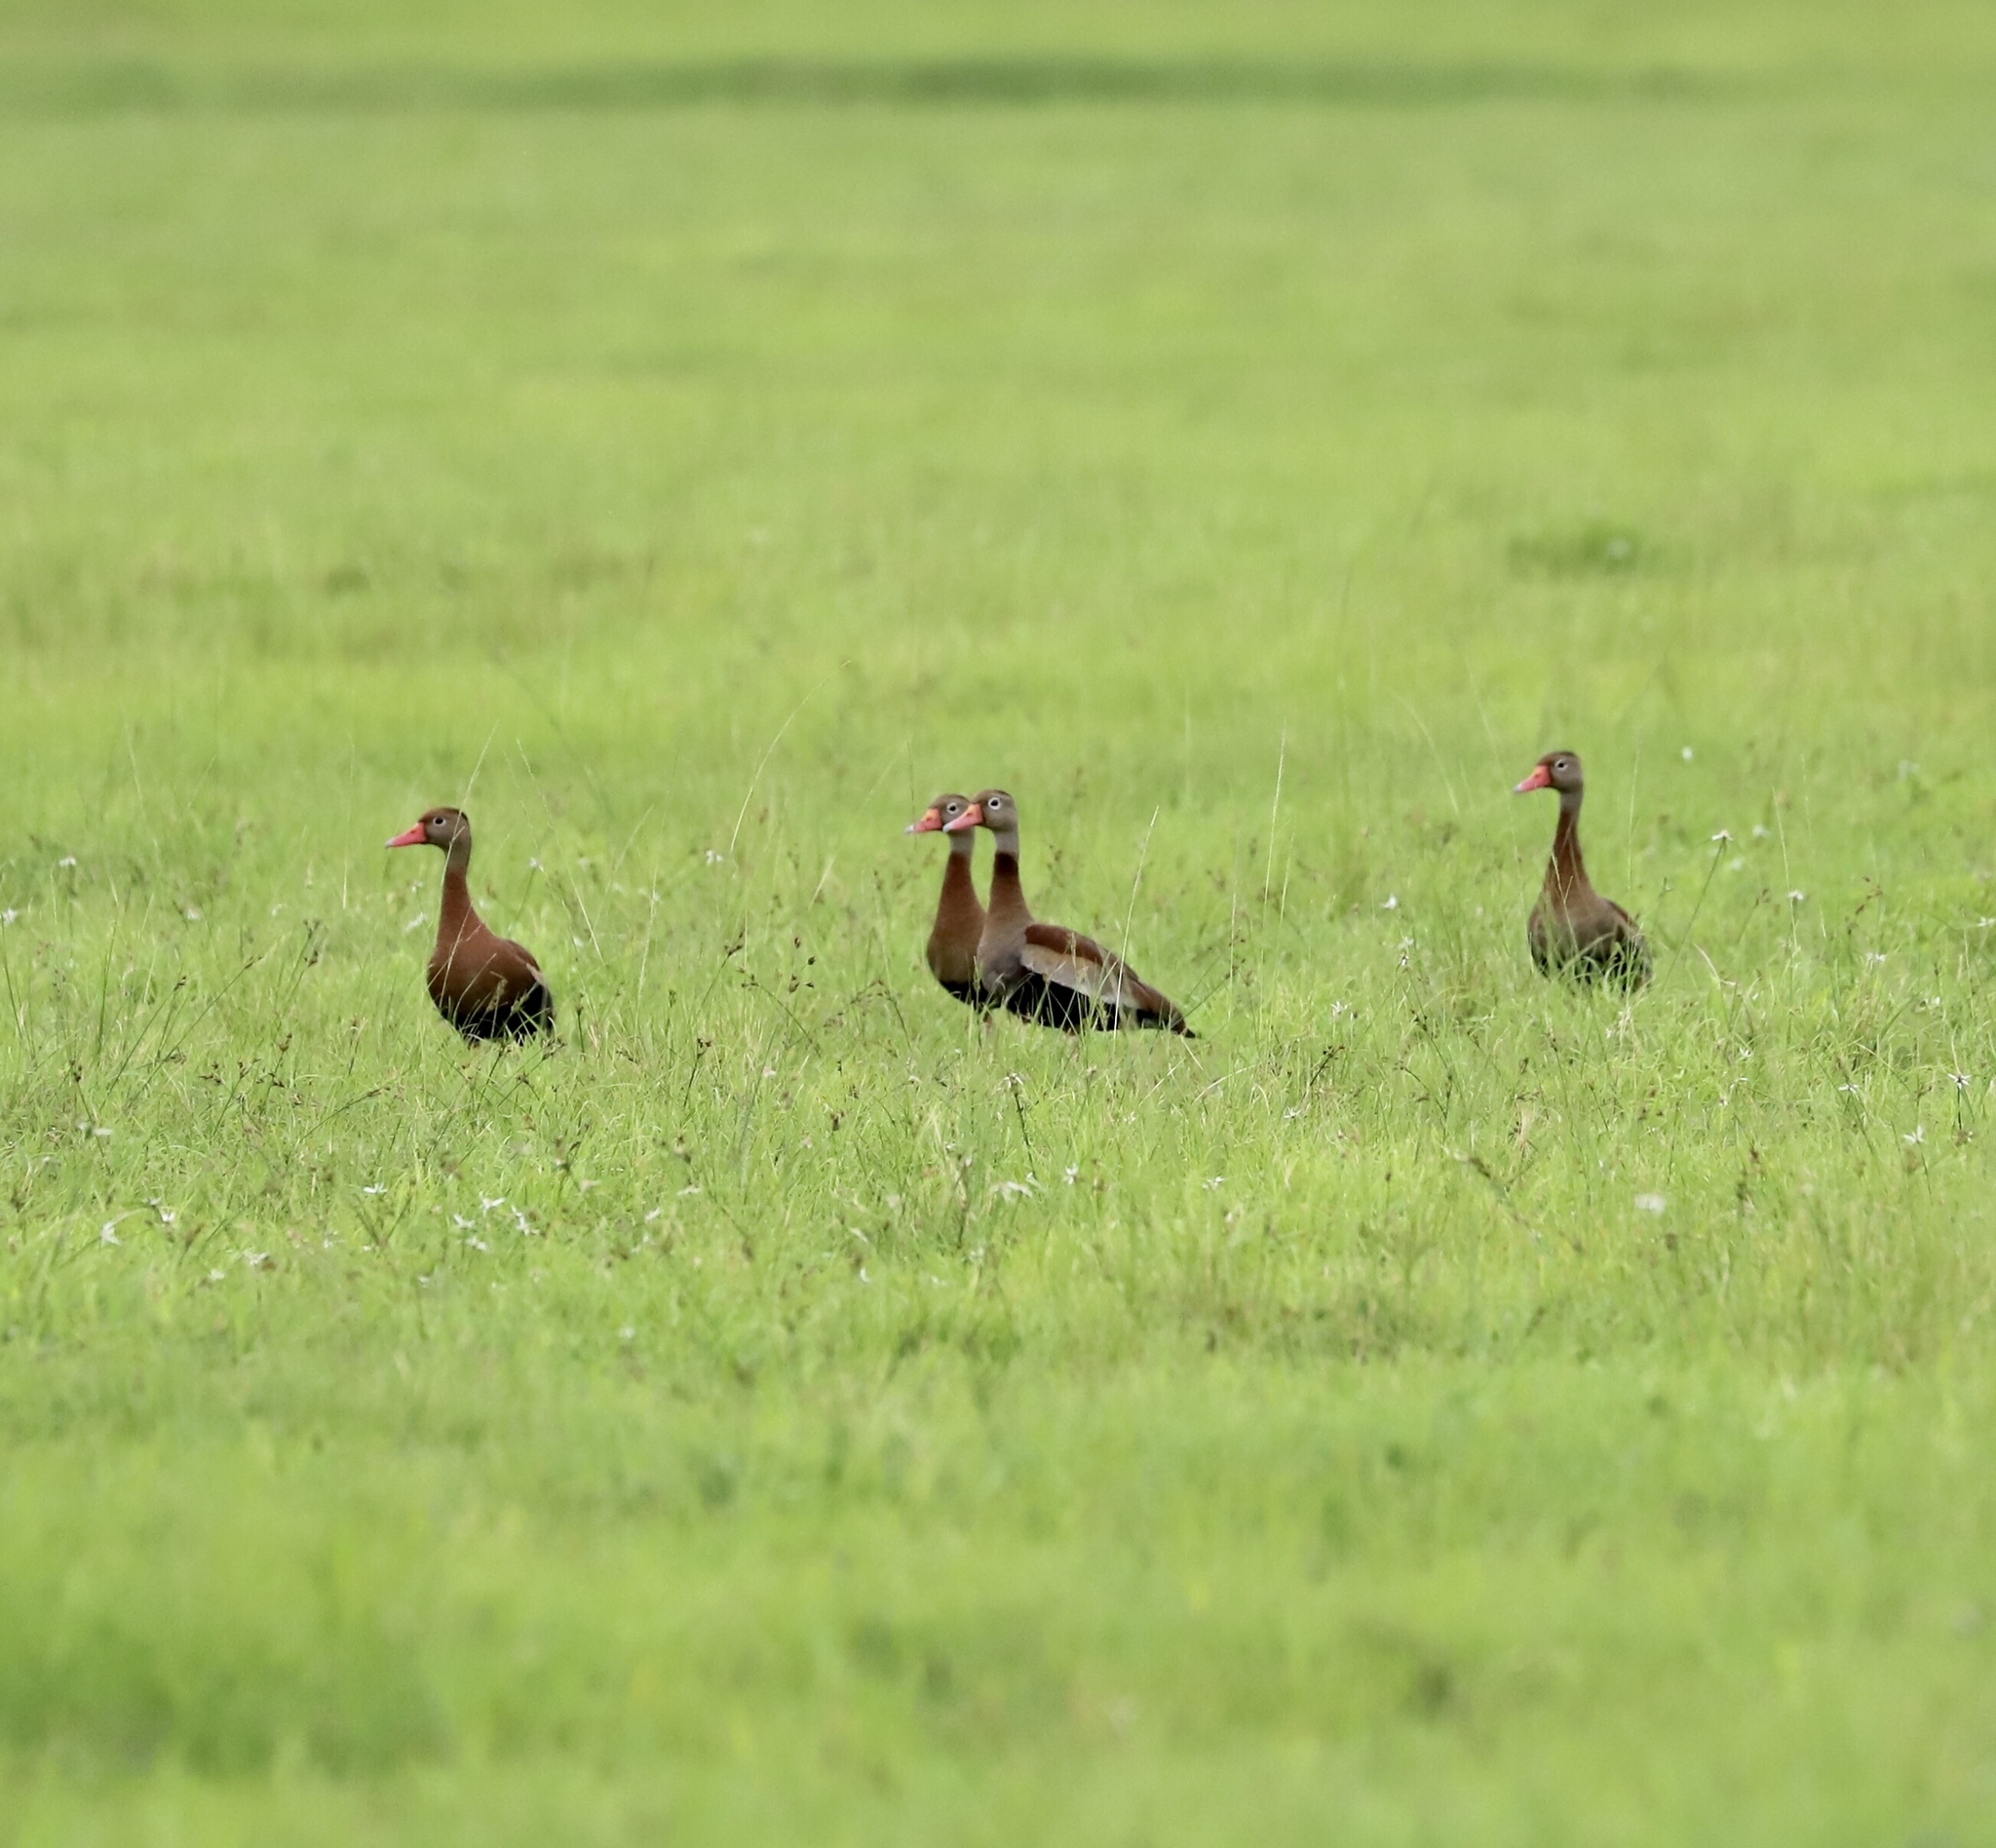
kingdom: Animalia
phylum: Chordata
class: Aves
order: Anseriformes
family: Anatidae
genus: Dendrocygna
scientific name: Dendrocygna autumnalis
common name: Black-bellied whistling duck
